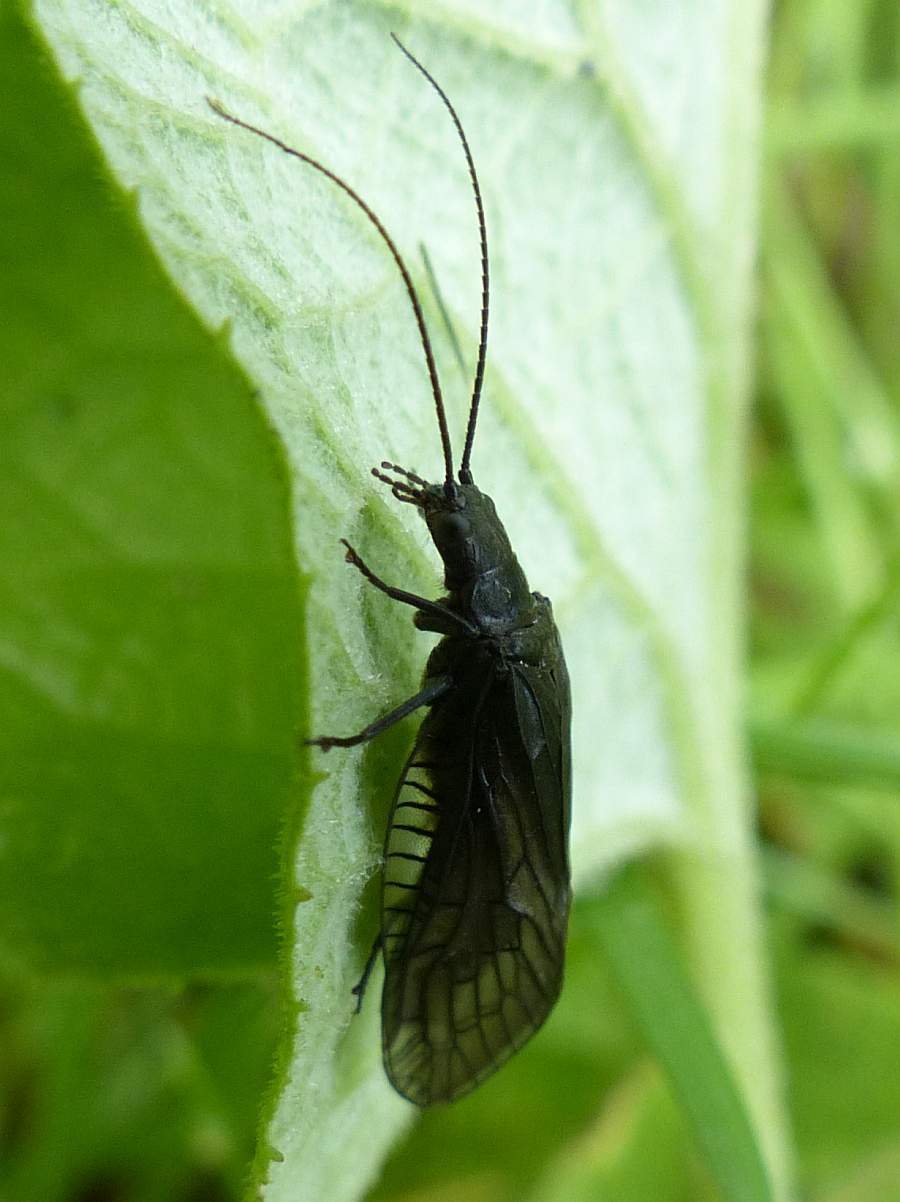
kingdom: Animalia
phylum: Arthropoda
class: Insecta
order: Megaloptera
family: Sialidae
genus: Sialis
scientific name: Sialis
